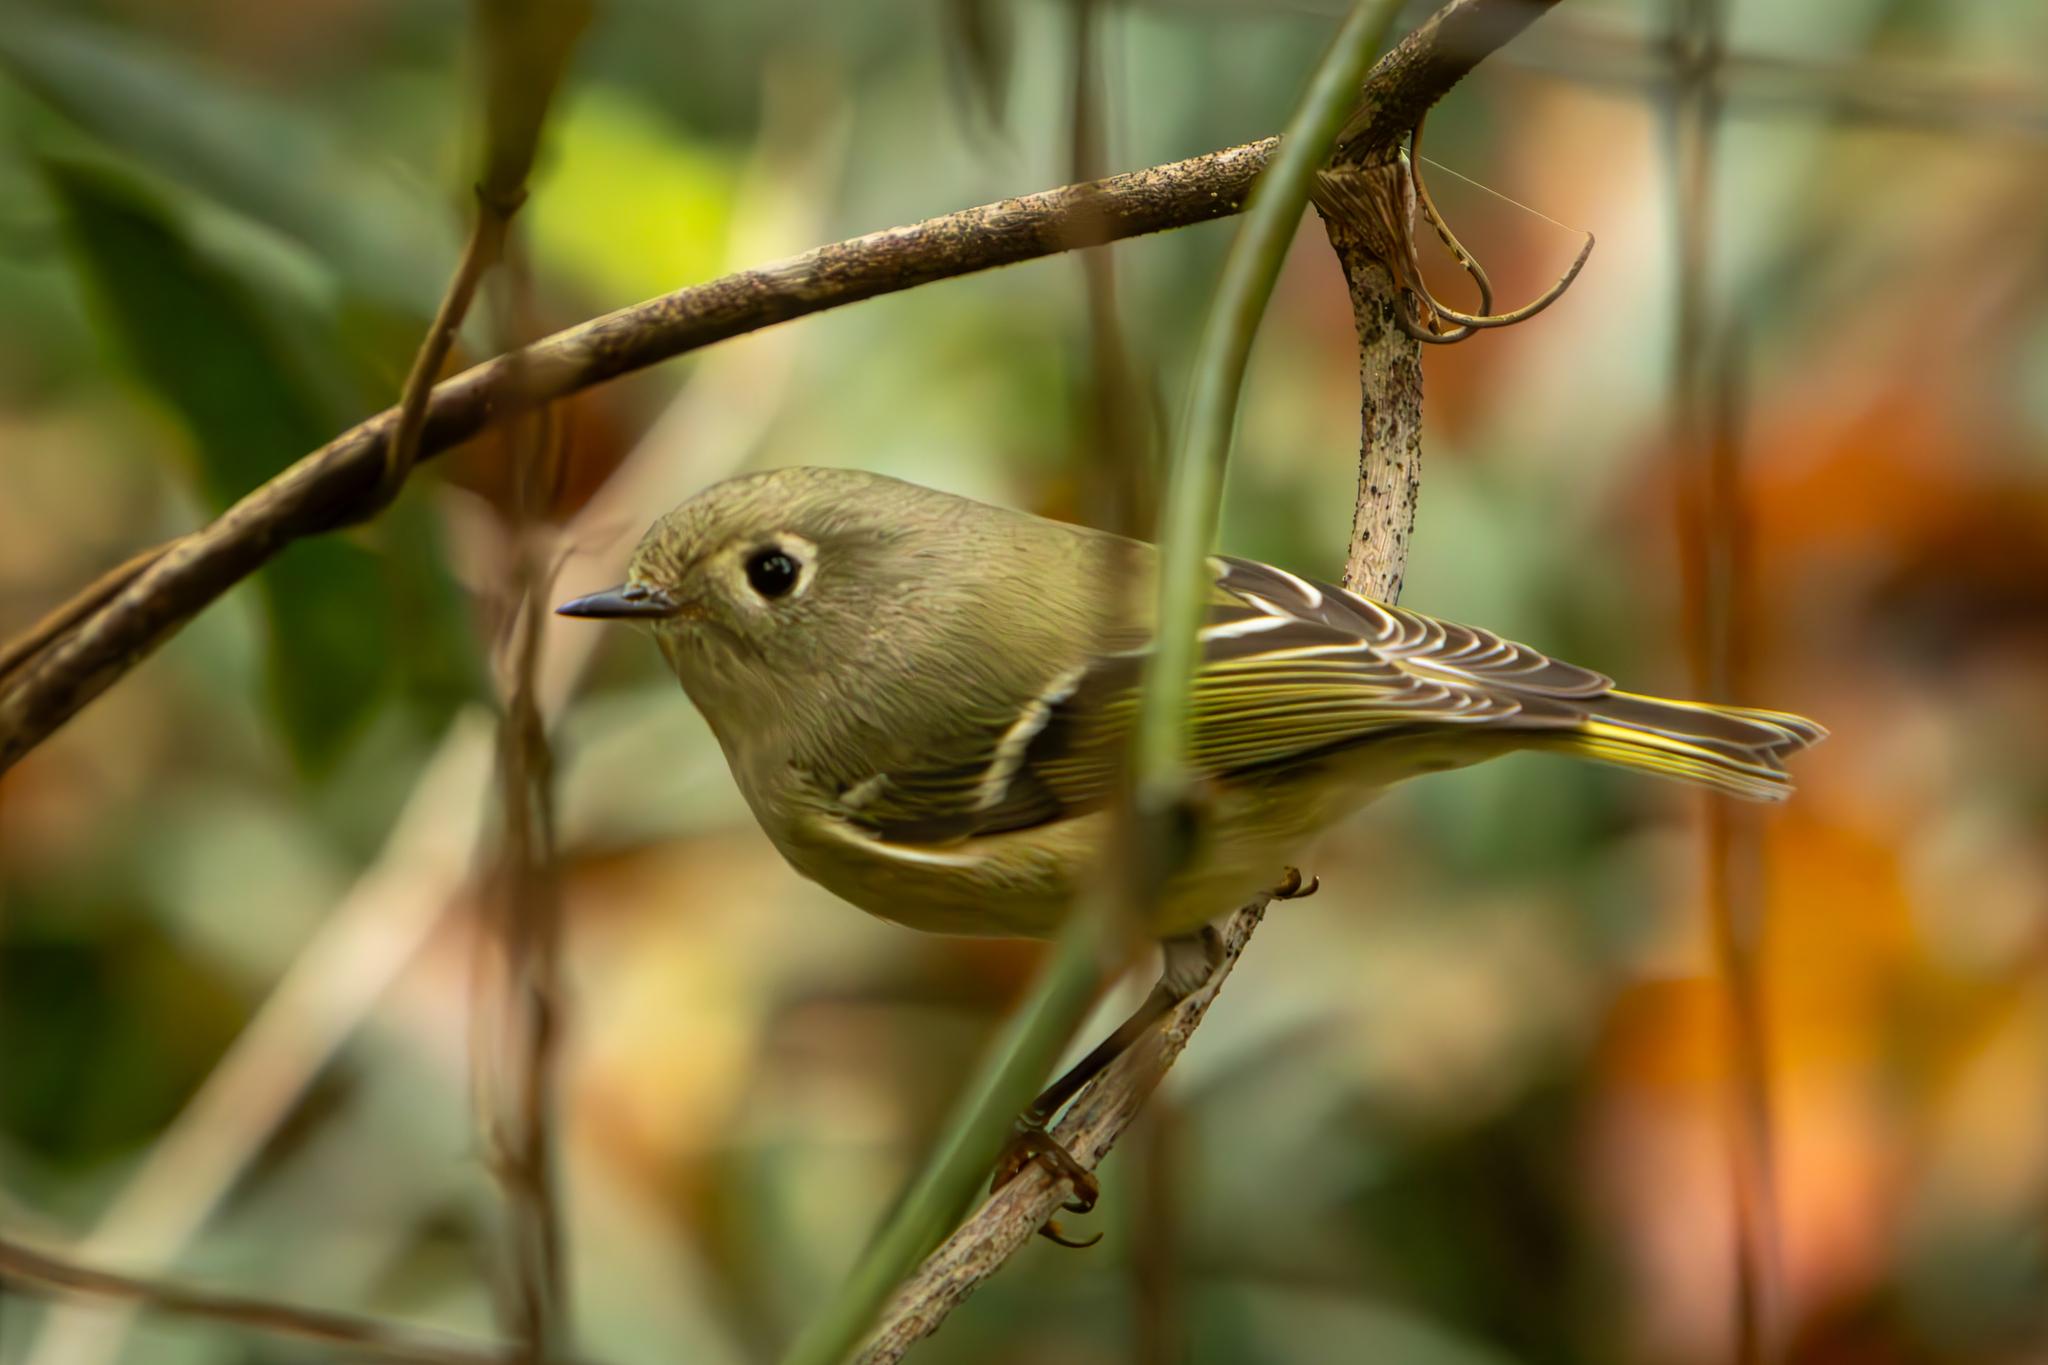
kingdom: Animalia
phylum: Chordata
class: Aves
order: Passeriformes
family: Regulidae
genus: Regulus
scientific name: Regulus calendula
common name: Ruby-crowned kinglet
